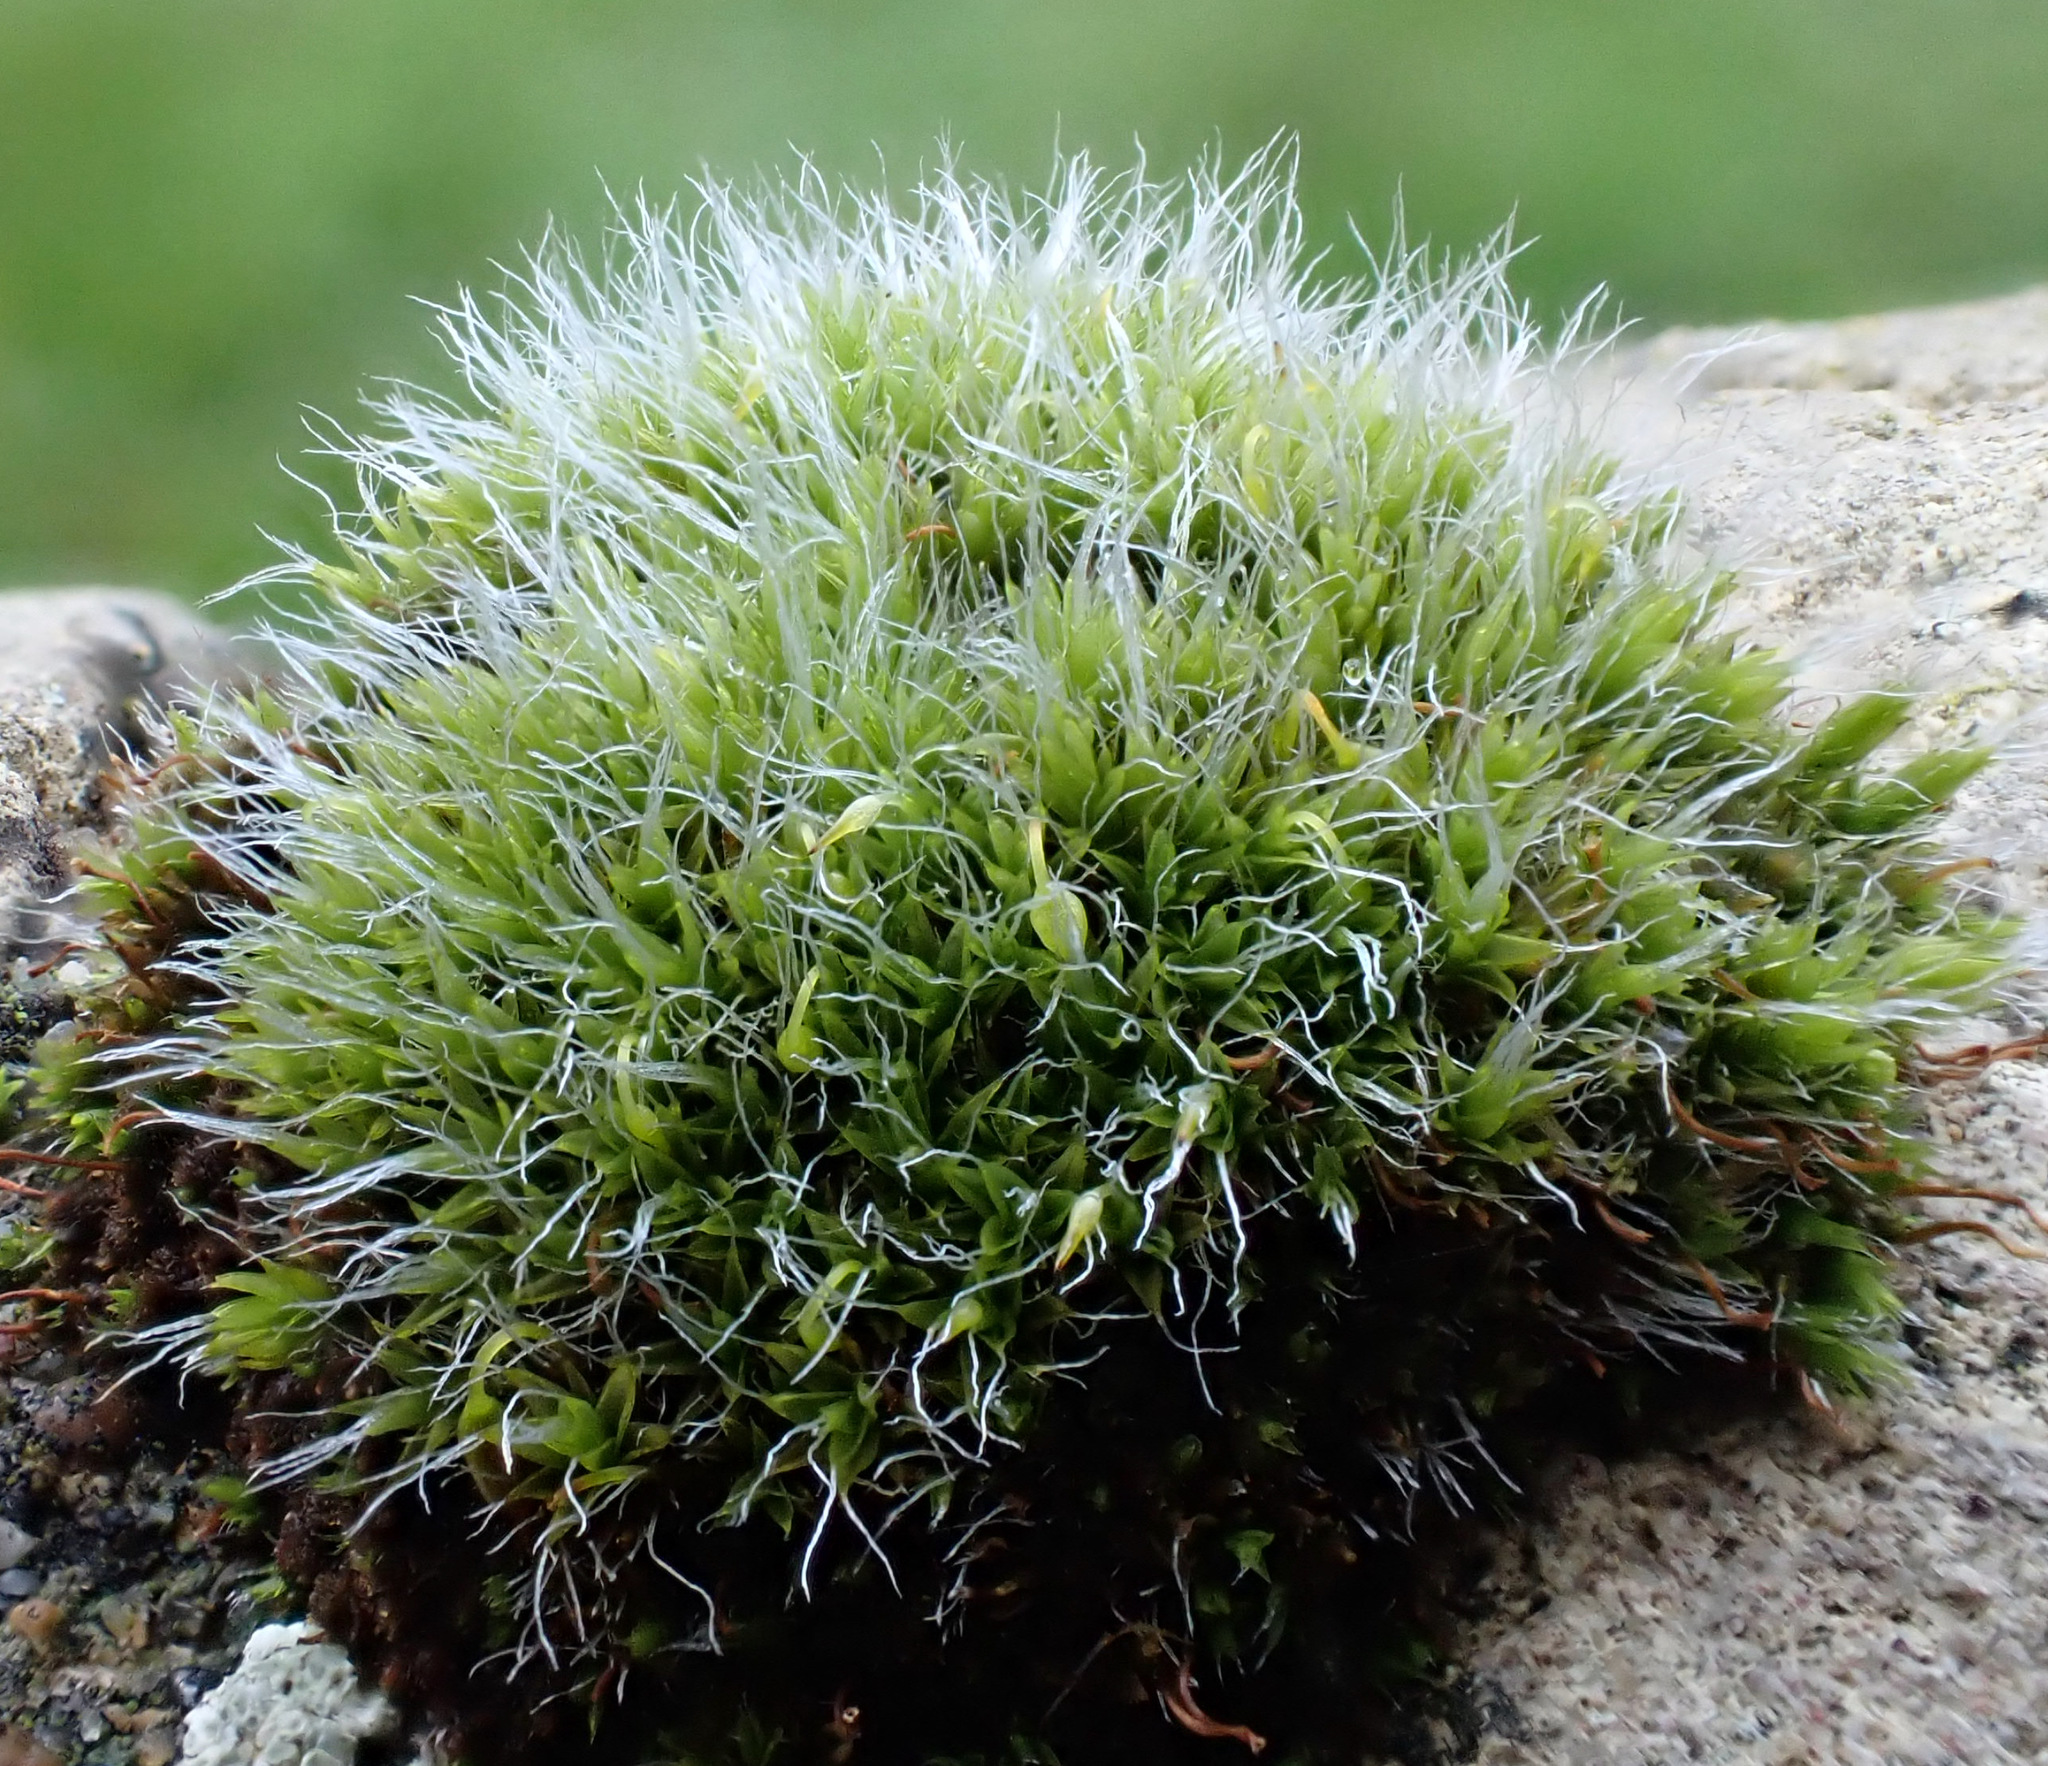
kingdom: Plantae
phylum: Bryophyta
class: Bryopsida
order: Grimmiales
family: Grimmiaceae
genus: Grimmia
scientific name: Grimmia pulvinata
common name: Grey-cushioned grimmia
